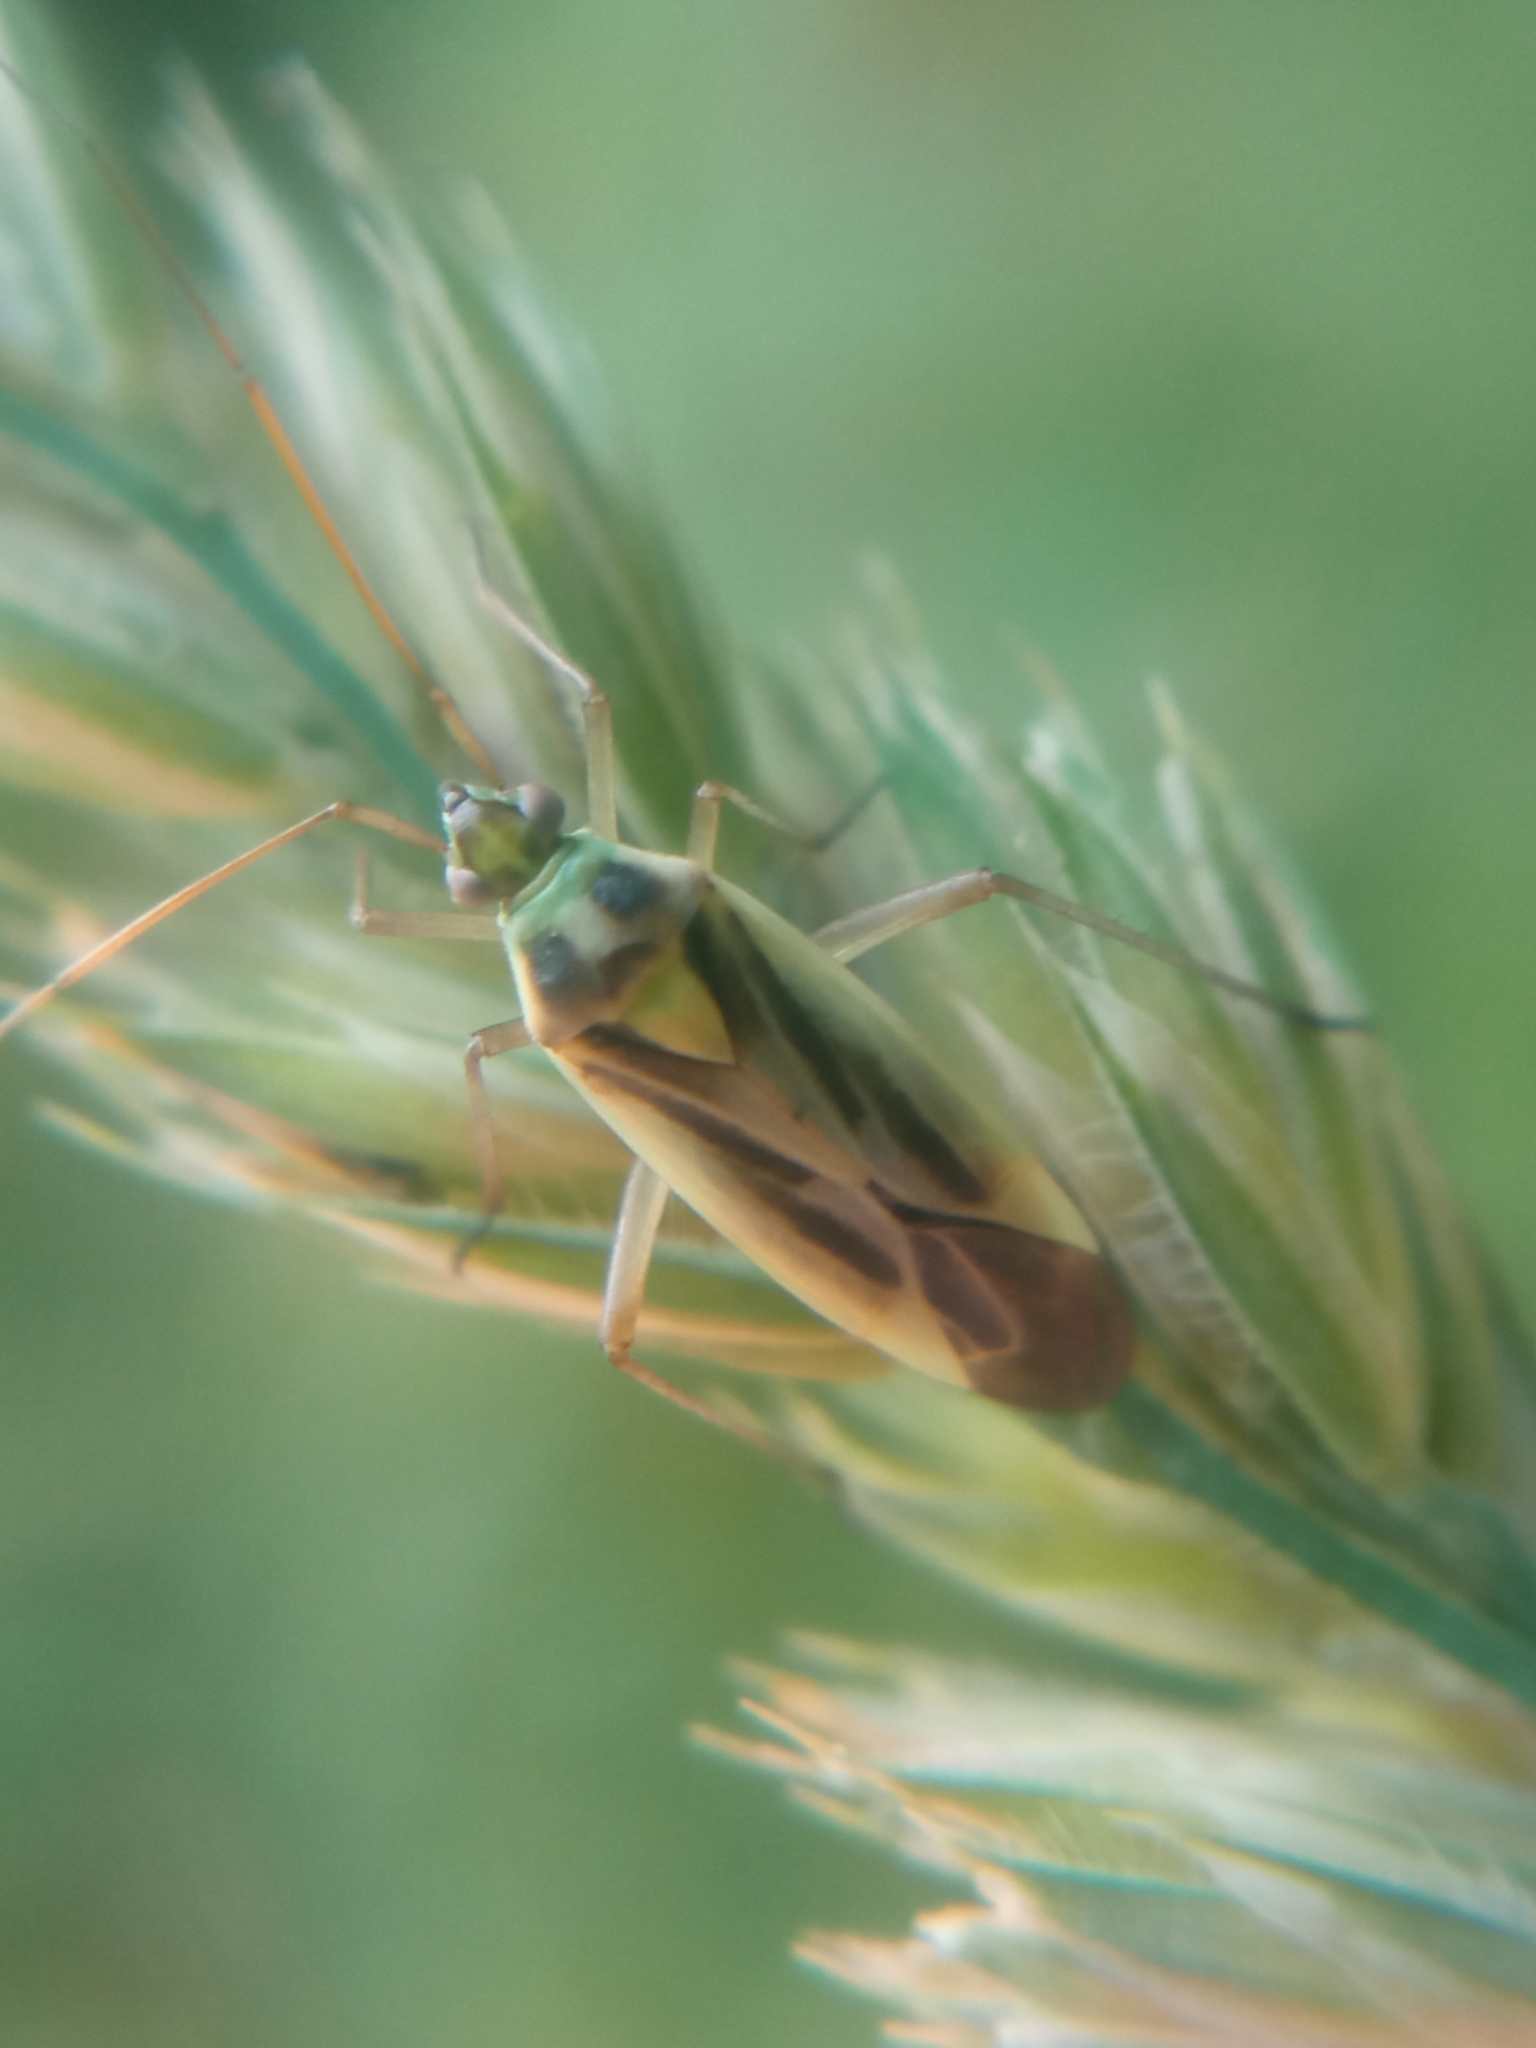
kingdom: Animalia
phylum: Arthropoda
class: Insecta
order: Hemiptera
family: Miridae
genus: Stenotus
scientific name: Stenotus binotatus
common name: Plant bug
